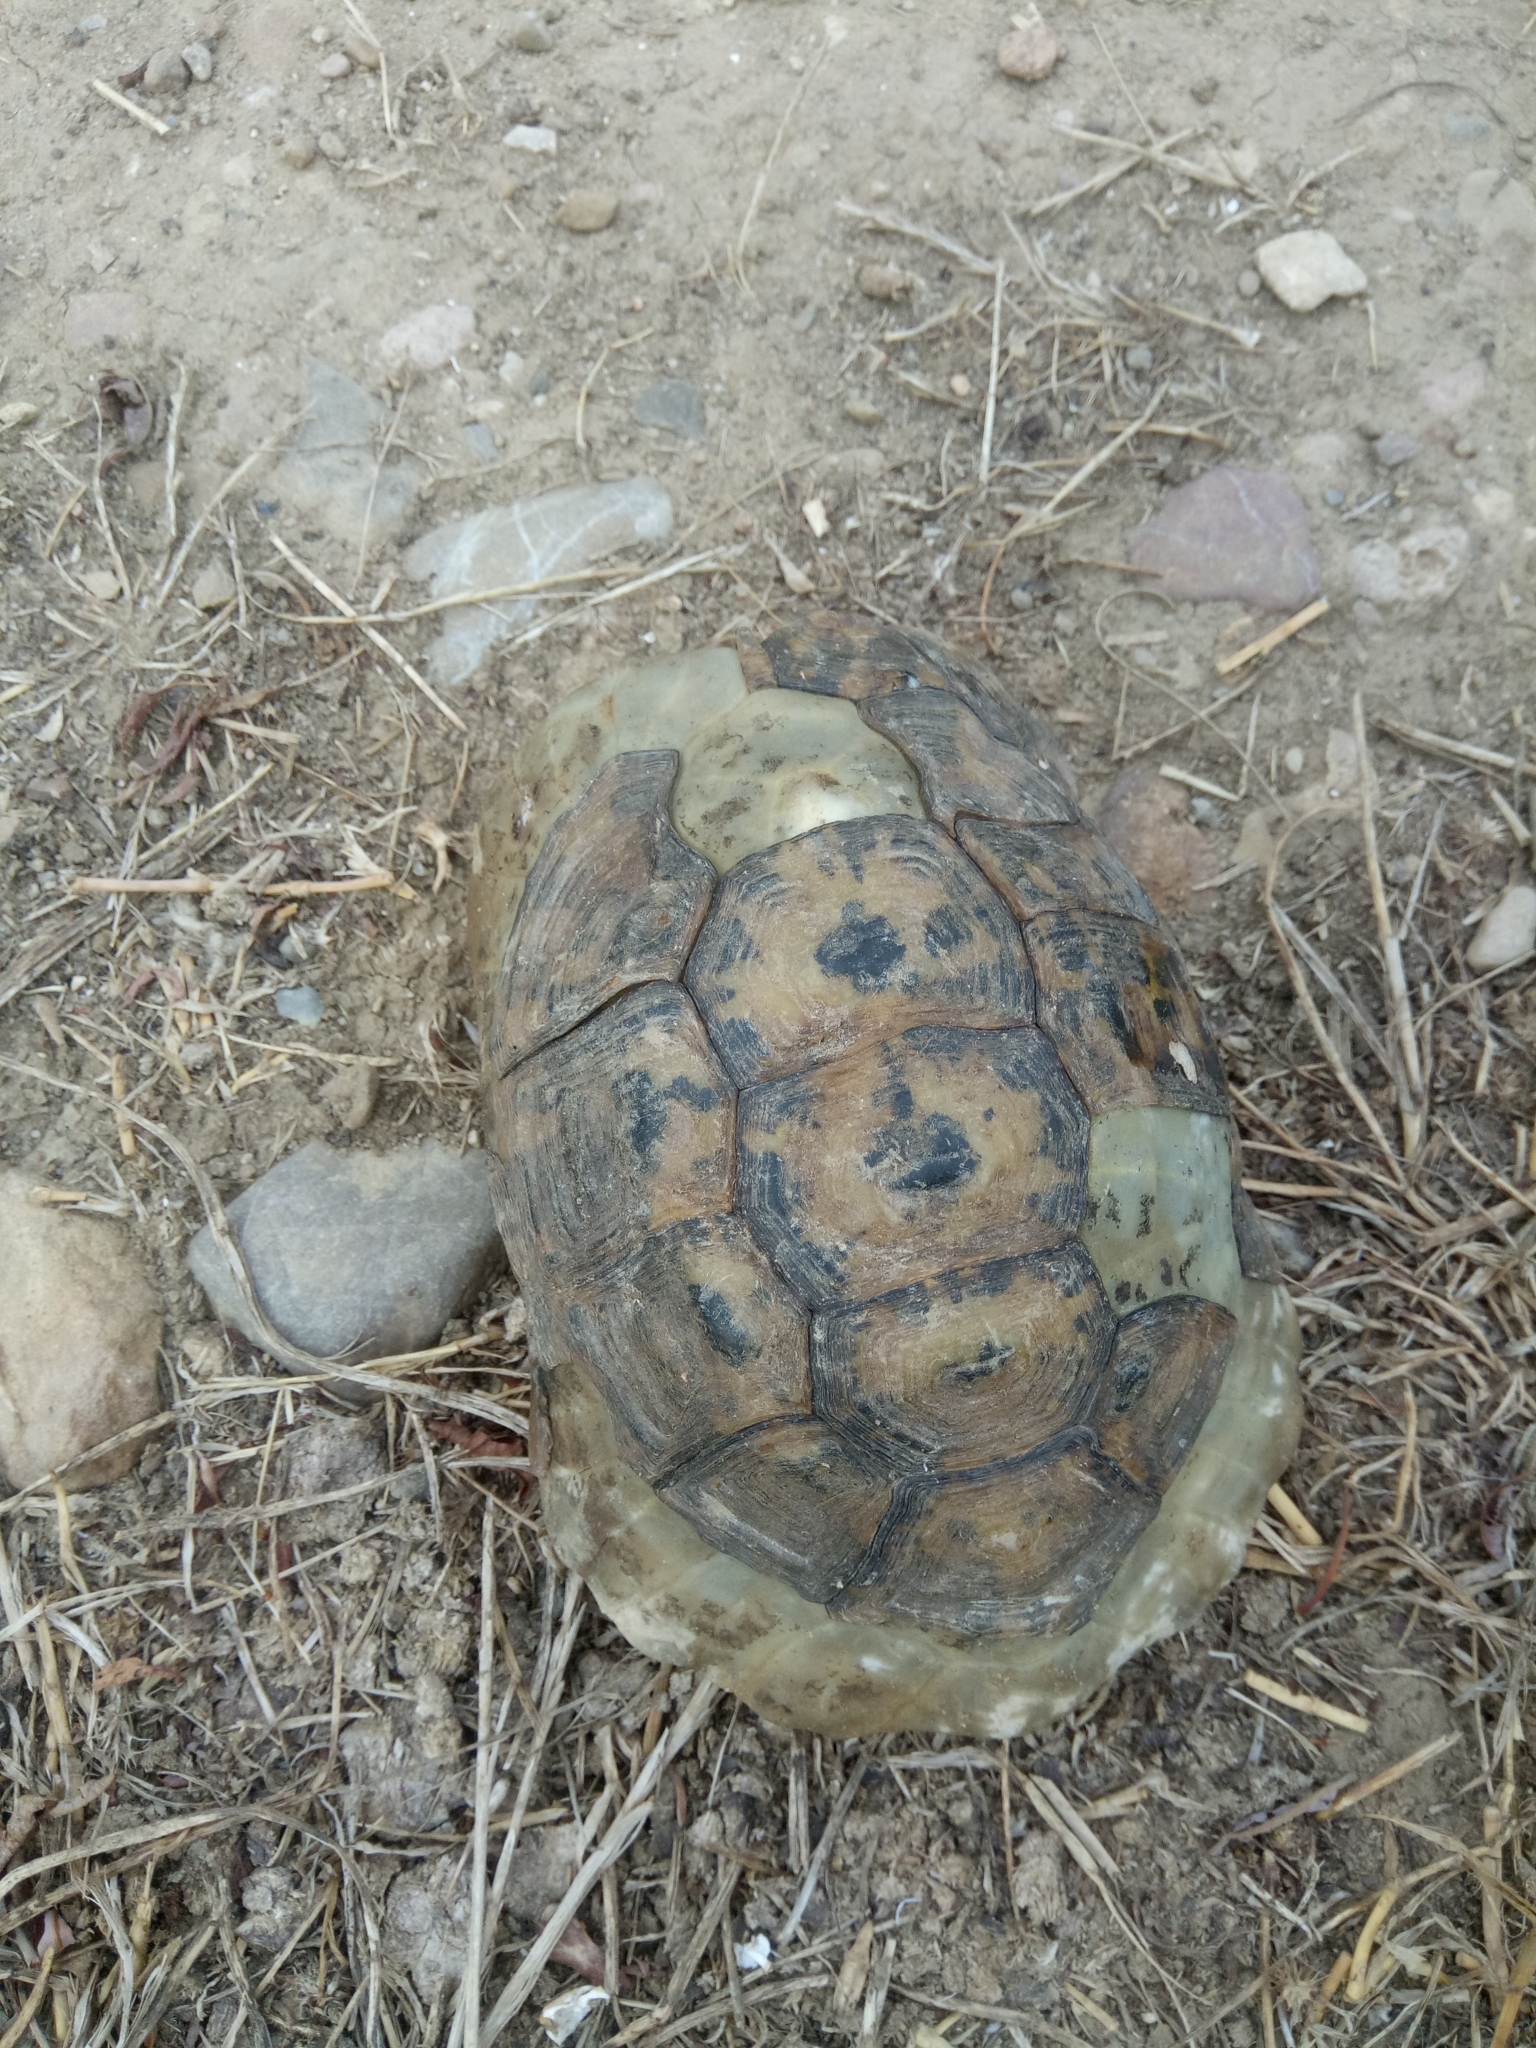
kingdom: Animalia
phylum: Chordata
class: Testudines
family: Testudinidae
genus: Testudo
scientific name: Testudo graeca
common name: Common tortoise
